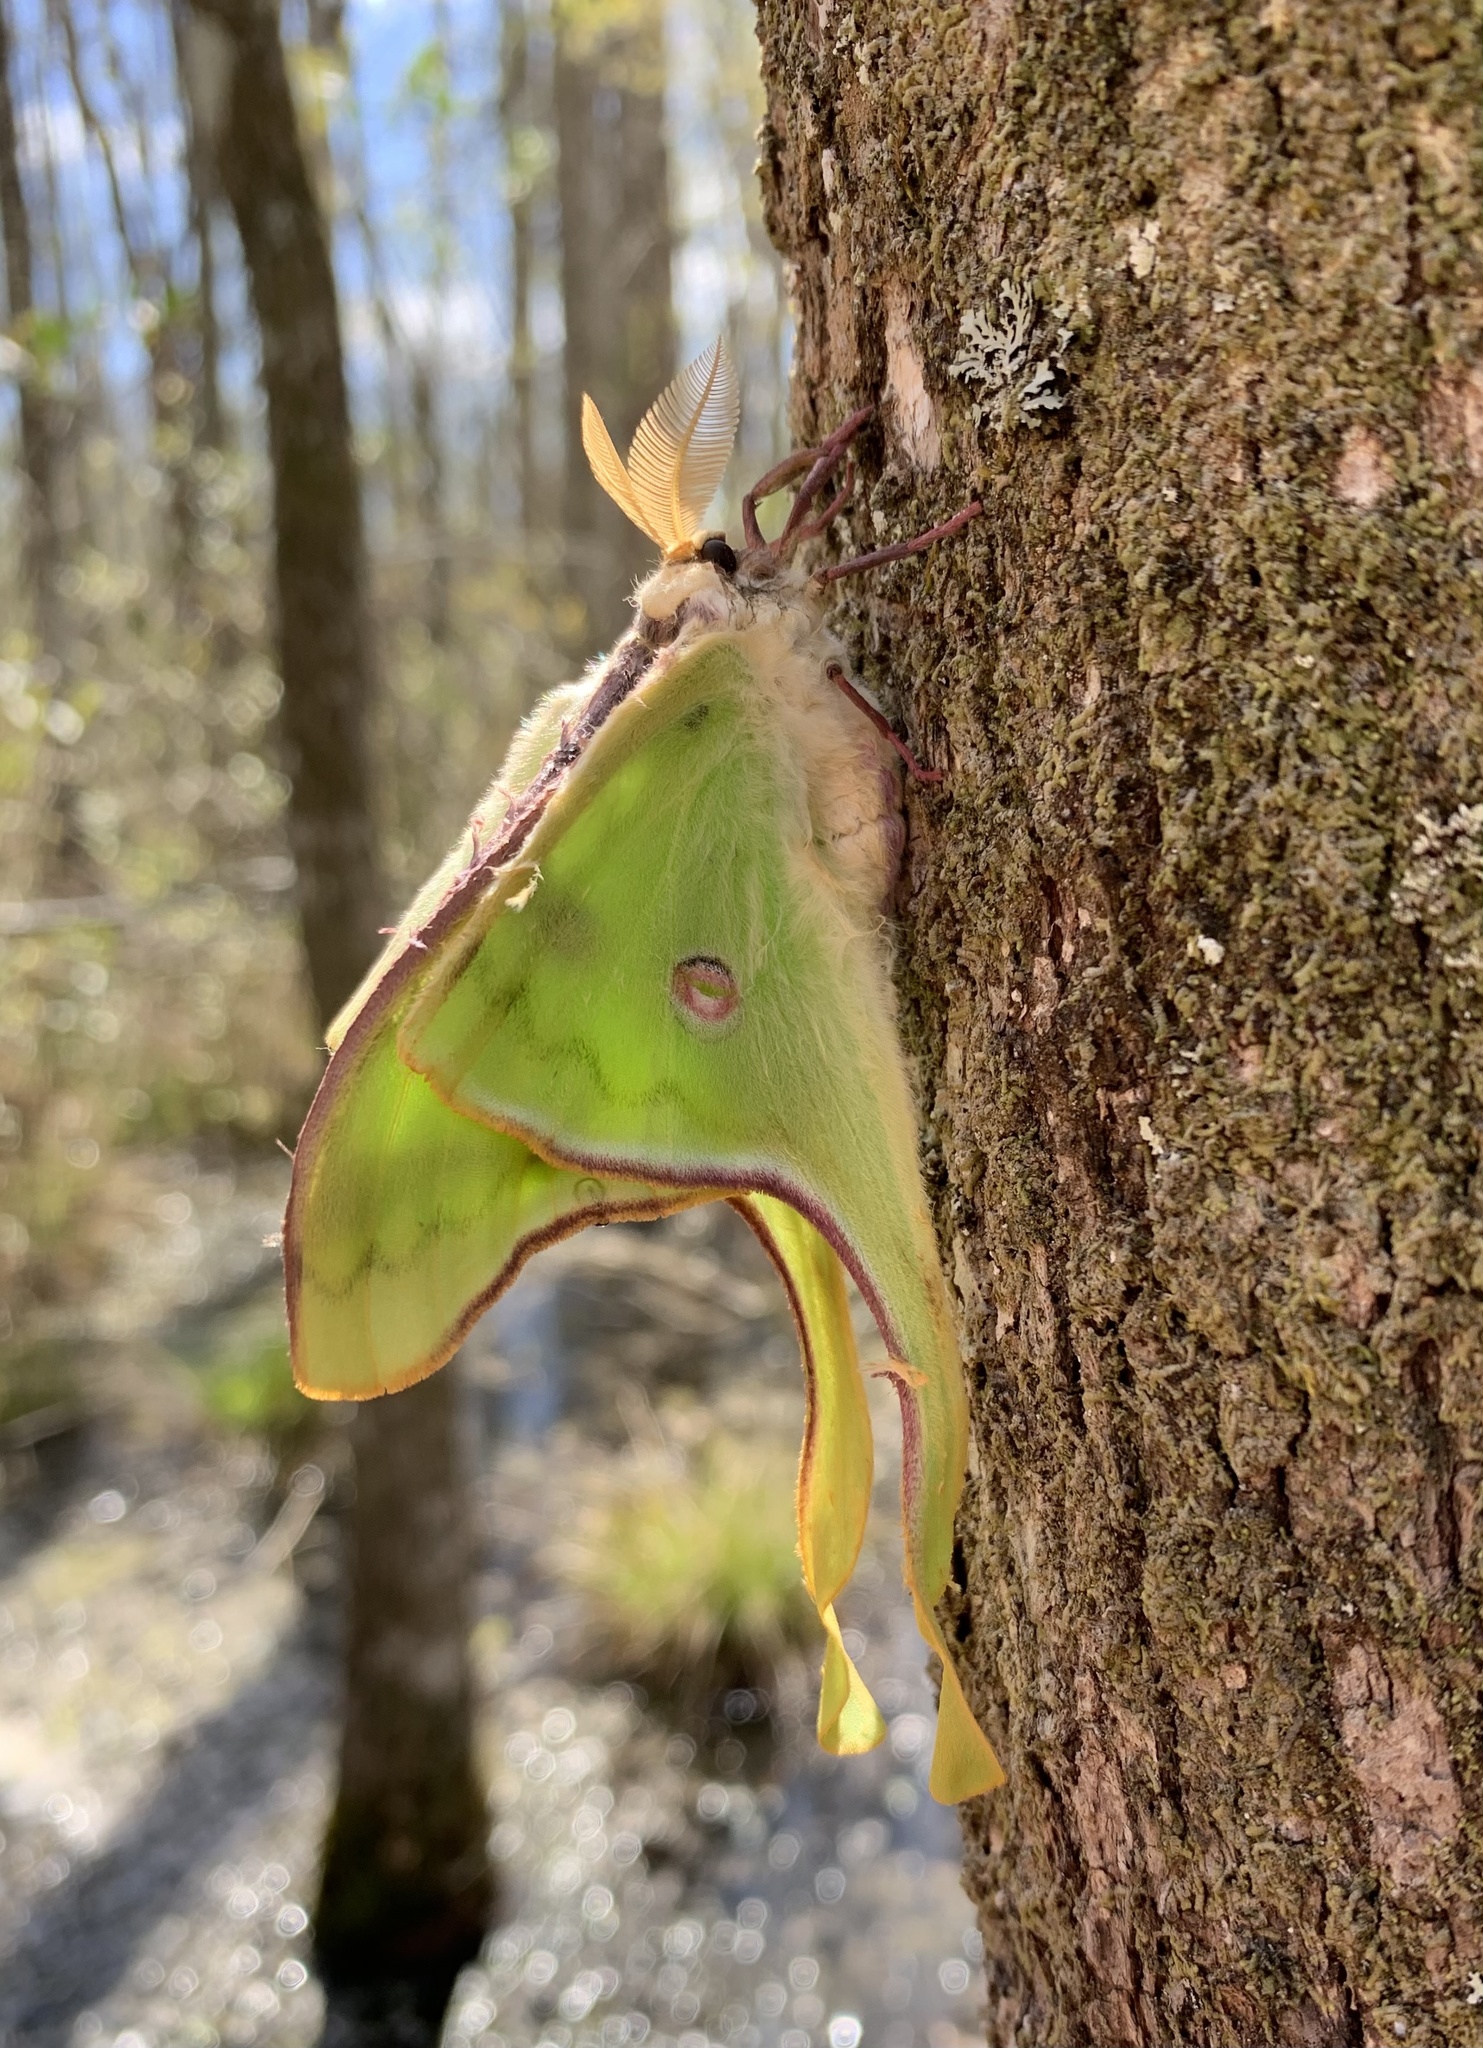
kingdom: Animalia
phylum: Arthropoda
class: Insecta
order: Lepidoptera
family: Saturniidae
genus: Actias
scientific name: Actias luna
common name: Luna moth
